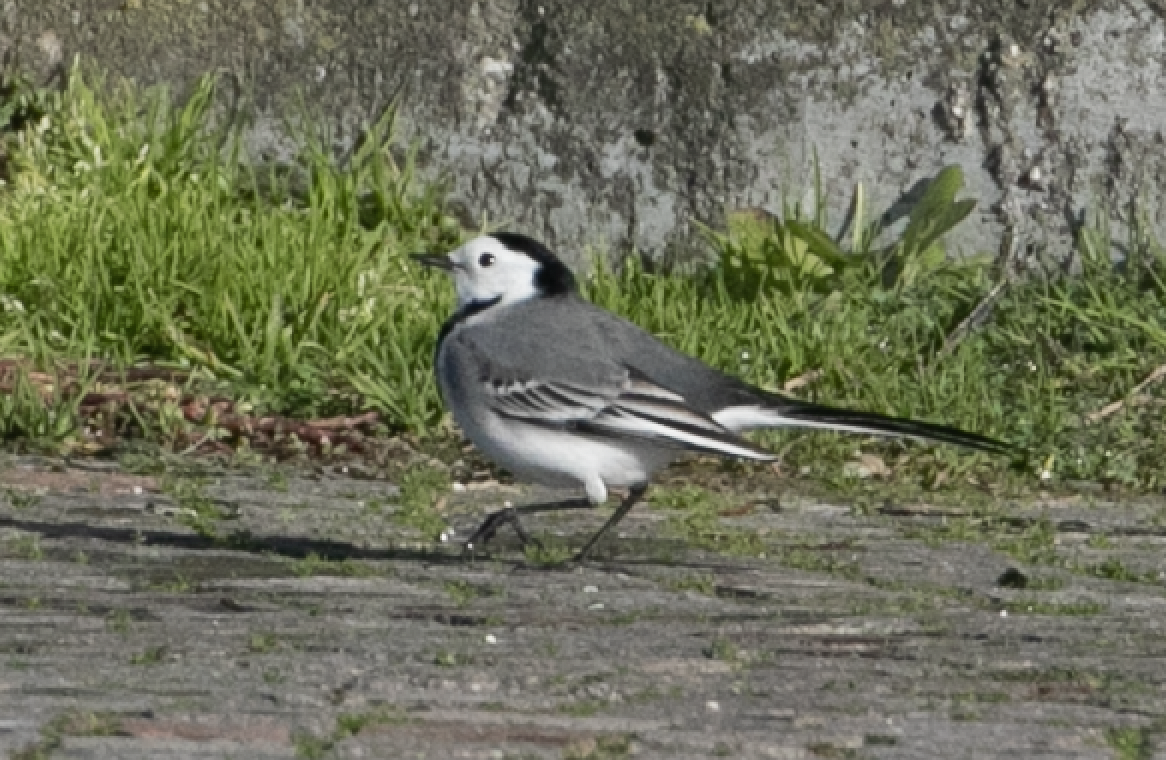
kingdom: Animalia
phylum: Chordata
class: Aves
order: Passeriformes
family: Motacillidae
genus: Motacilla
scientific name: Motacilla alba
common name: White wagtail
